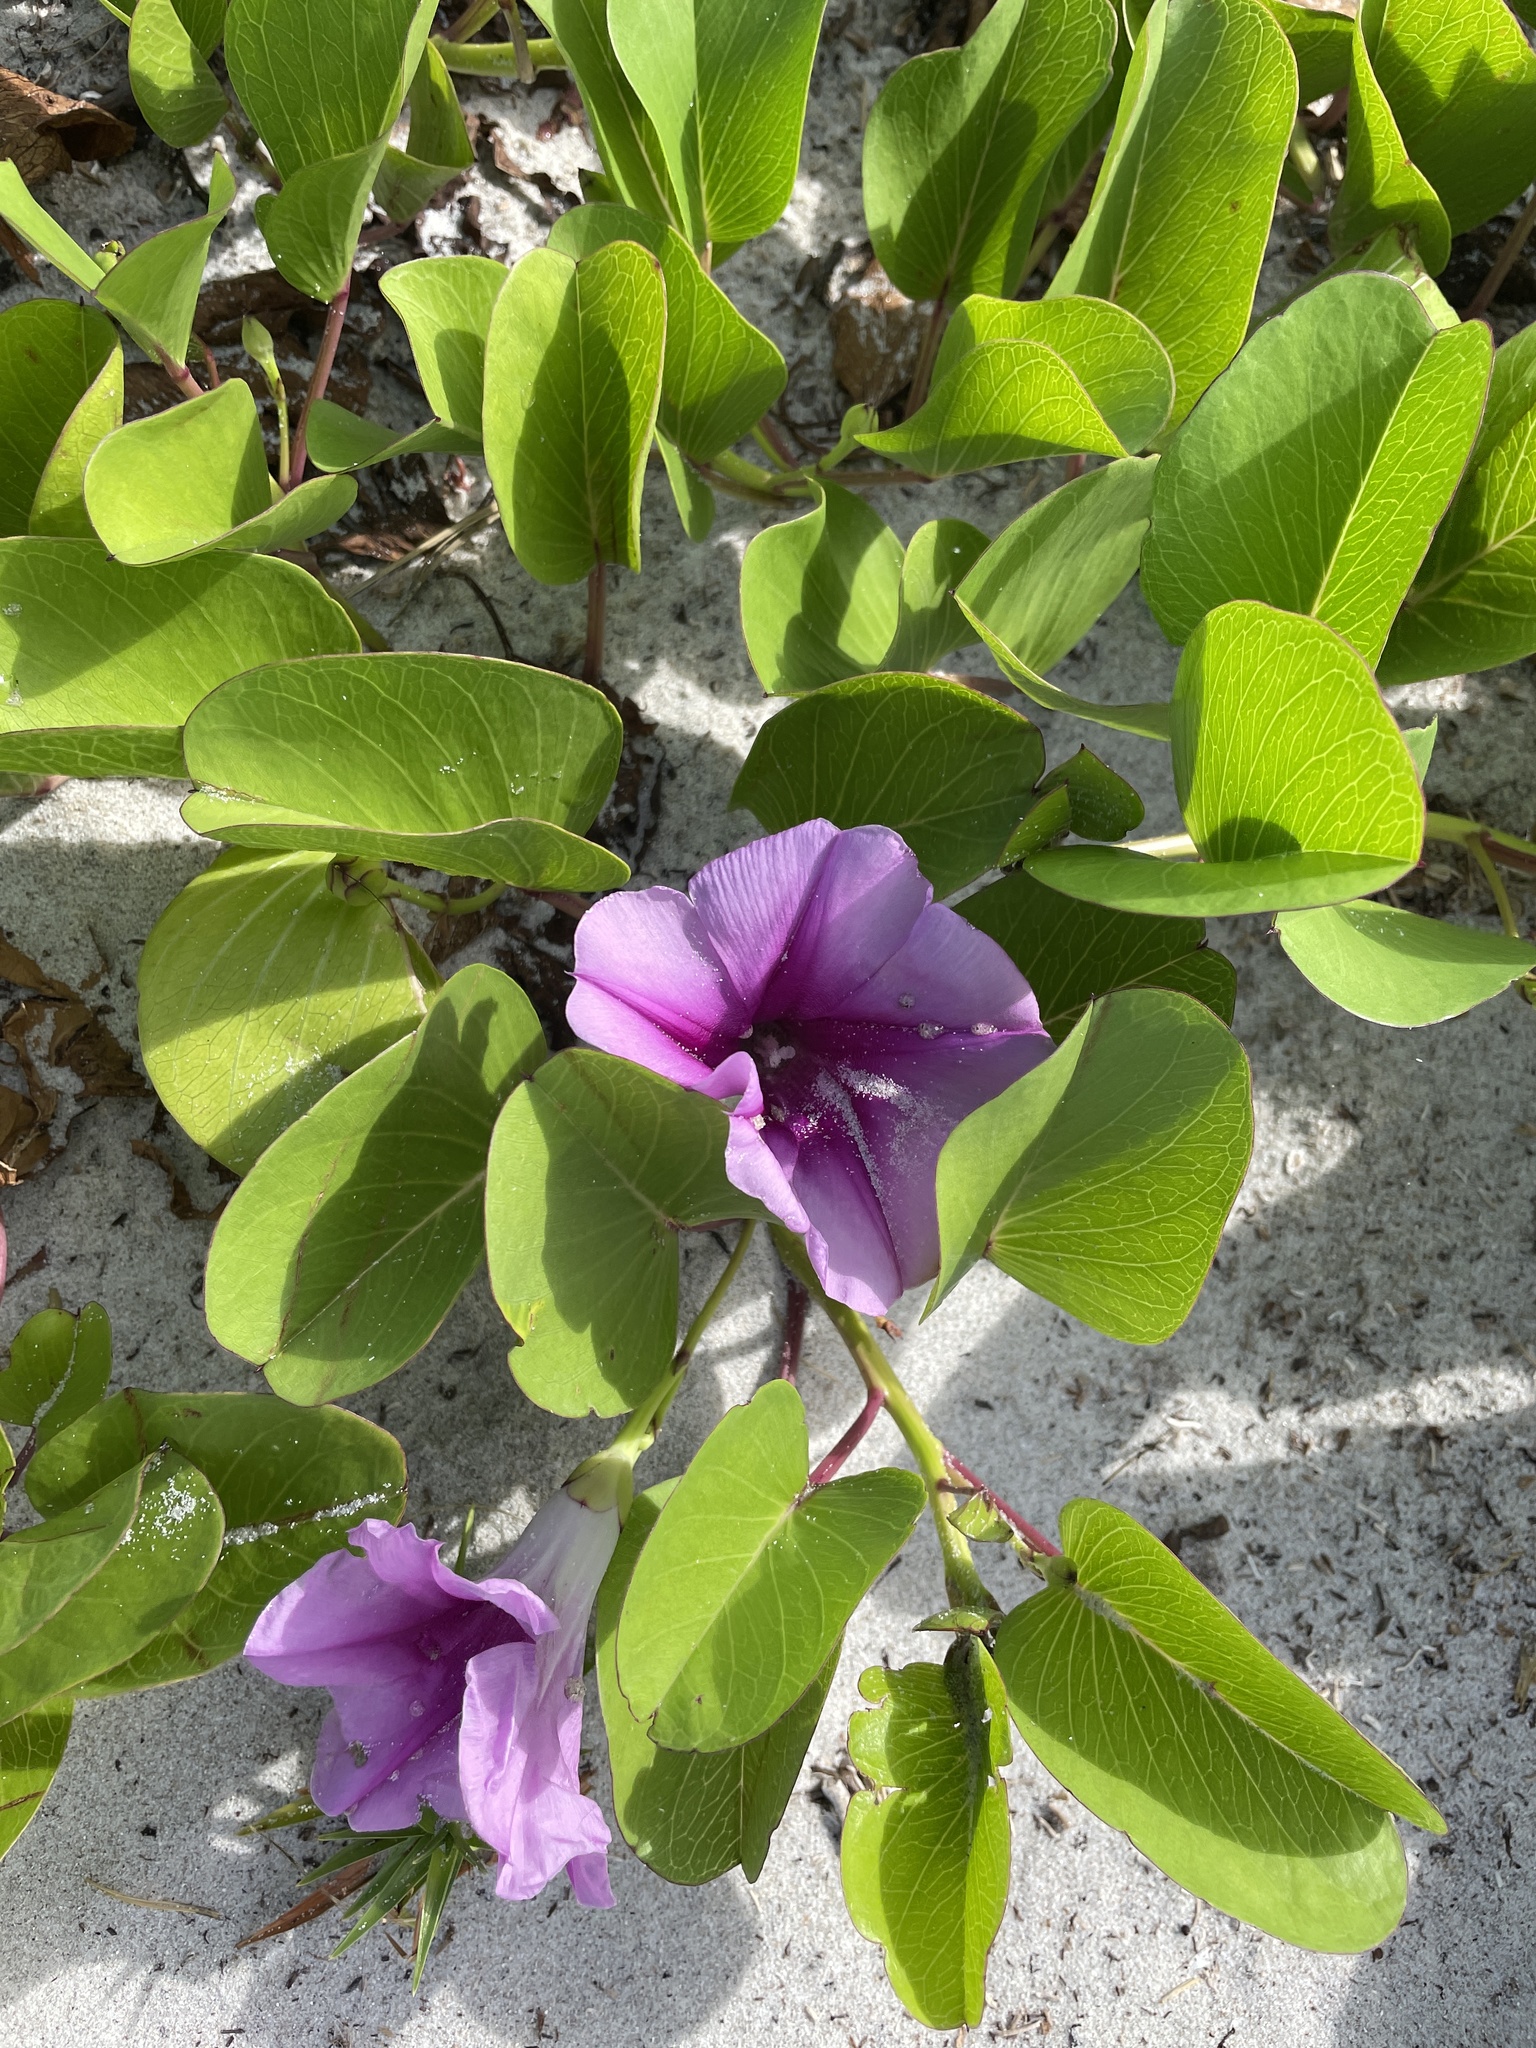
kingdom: Plantae
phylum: Tracheophyta
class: Magnoliopsida
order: Solanales
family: Convolvulaceae
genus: Ipomoea
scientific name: Ipomoea pes-caprae
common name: Beach morning glory
